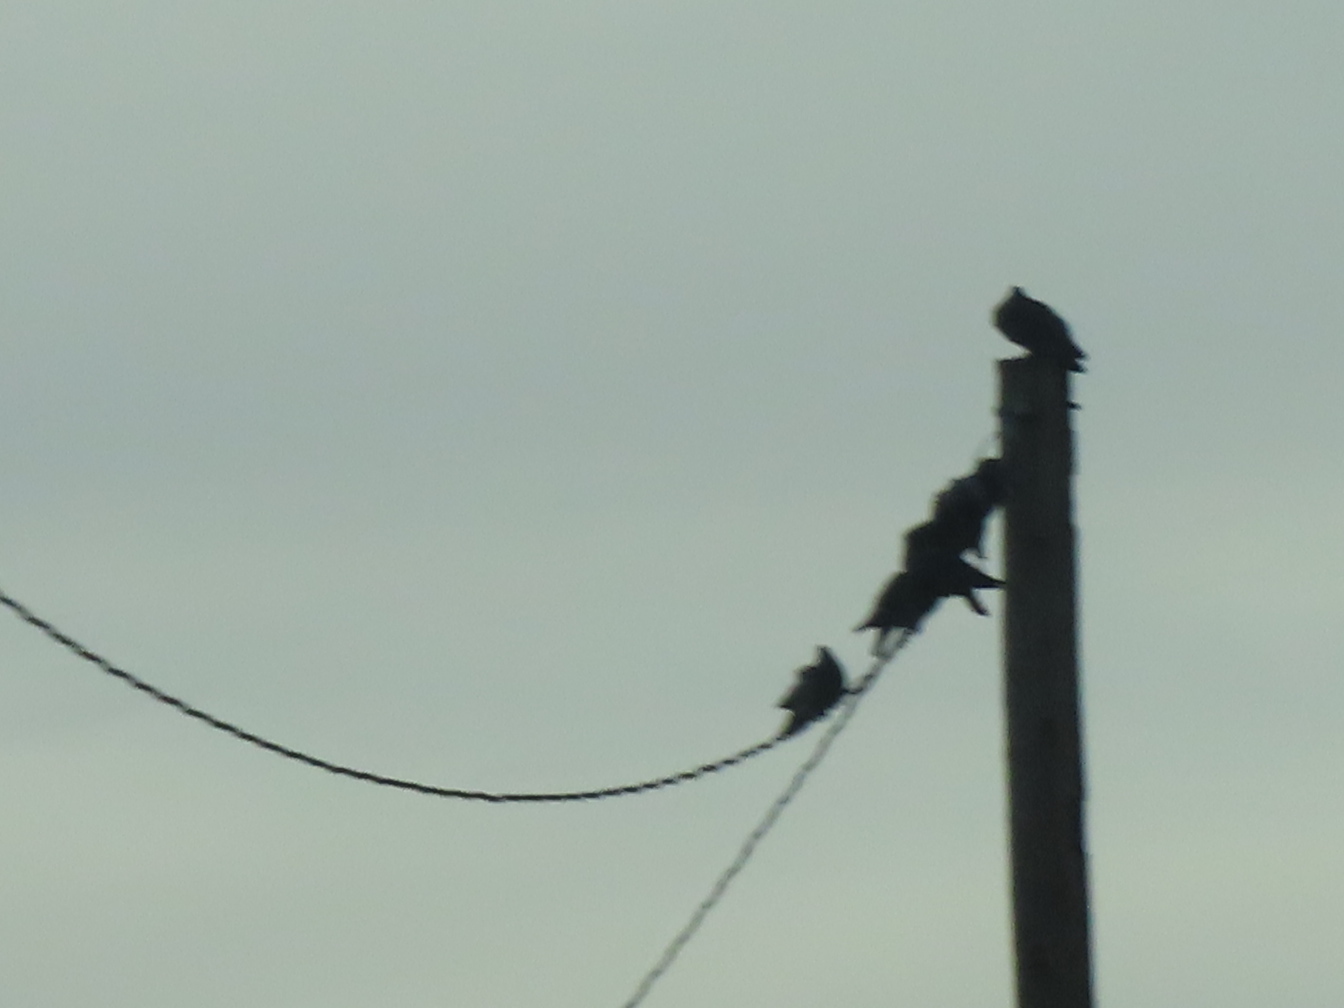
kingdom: Animalia
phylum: Chordata
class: Aves
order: Columbiformes
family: Columbidae
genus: Columba
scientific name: Columba livia
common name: Rock pigeon
